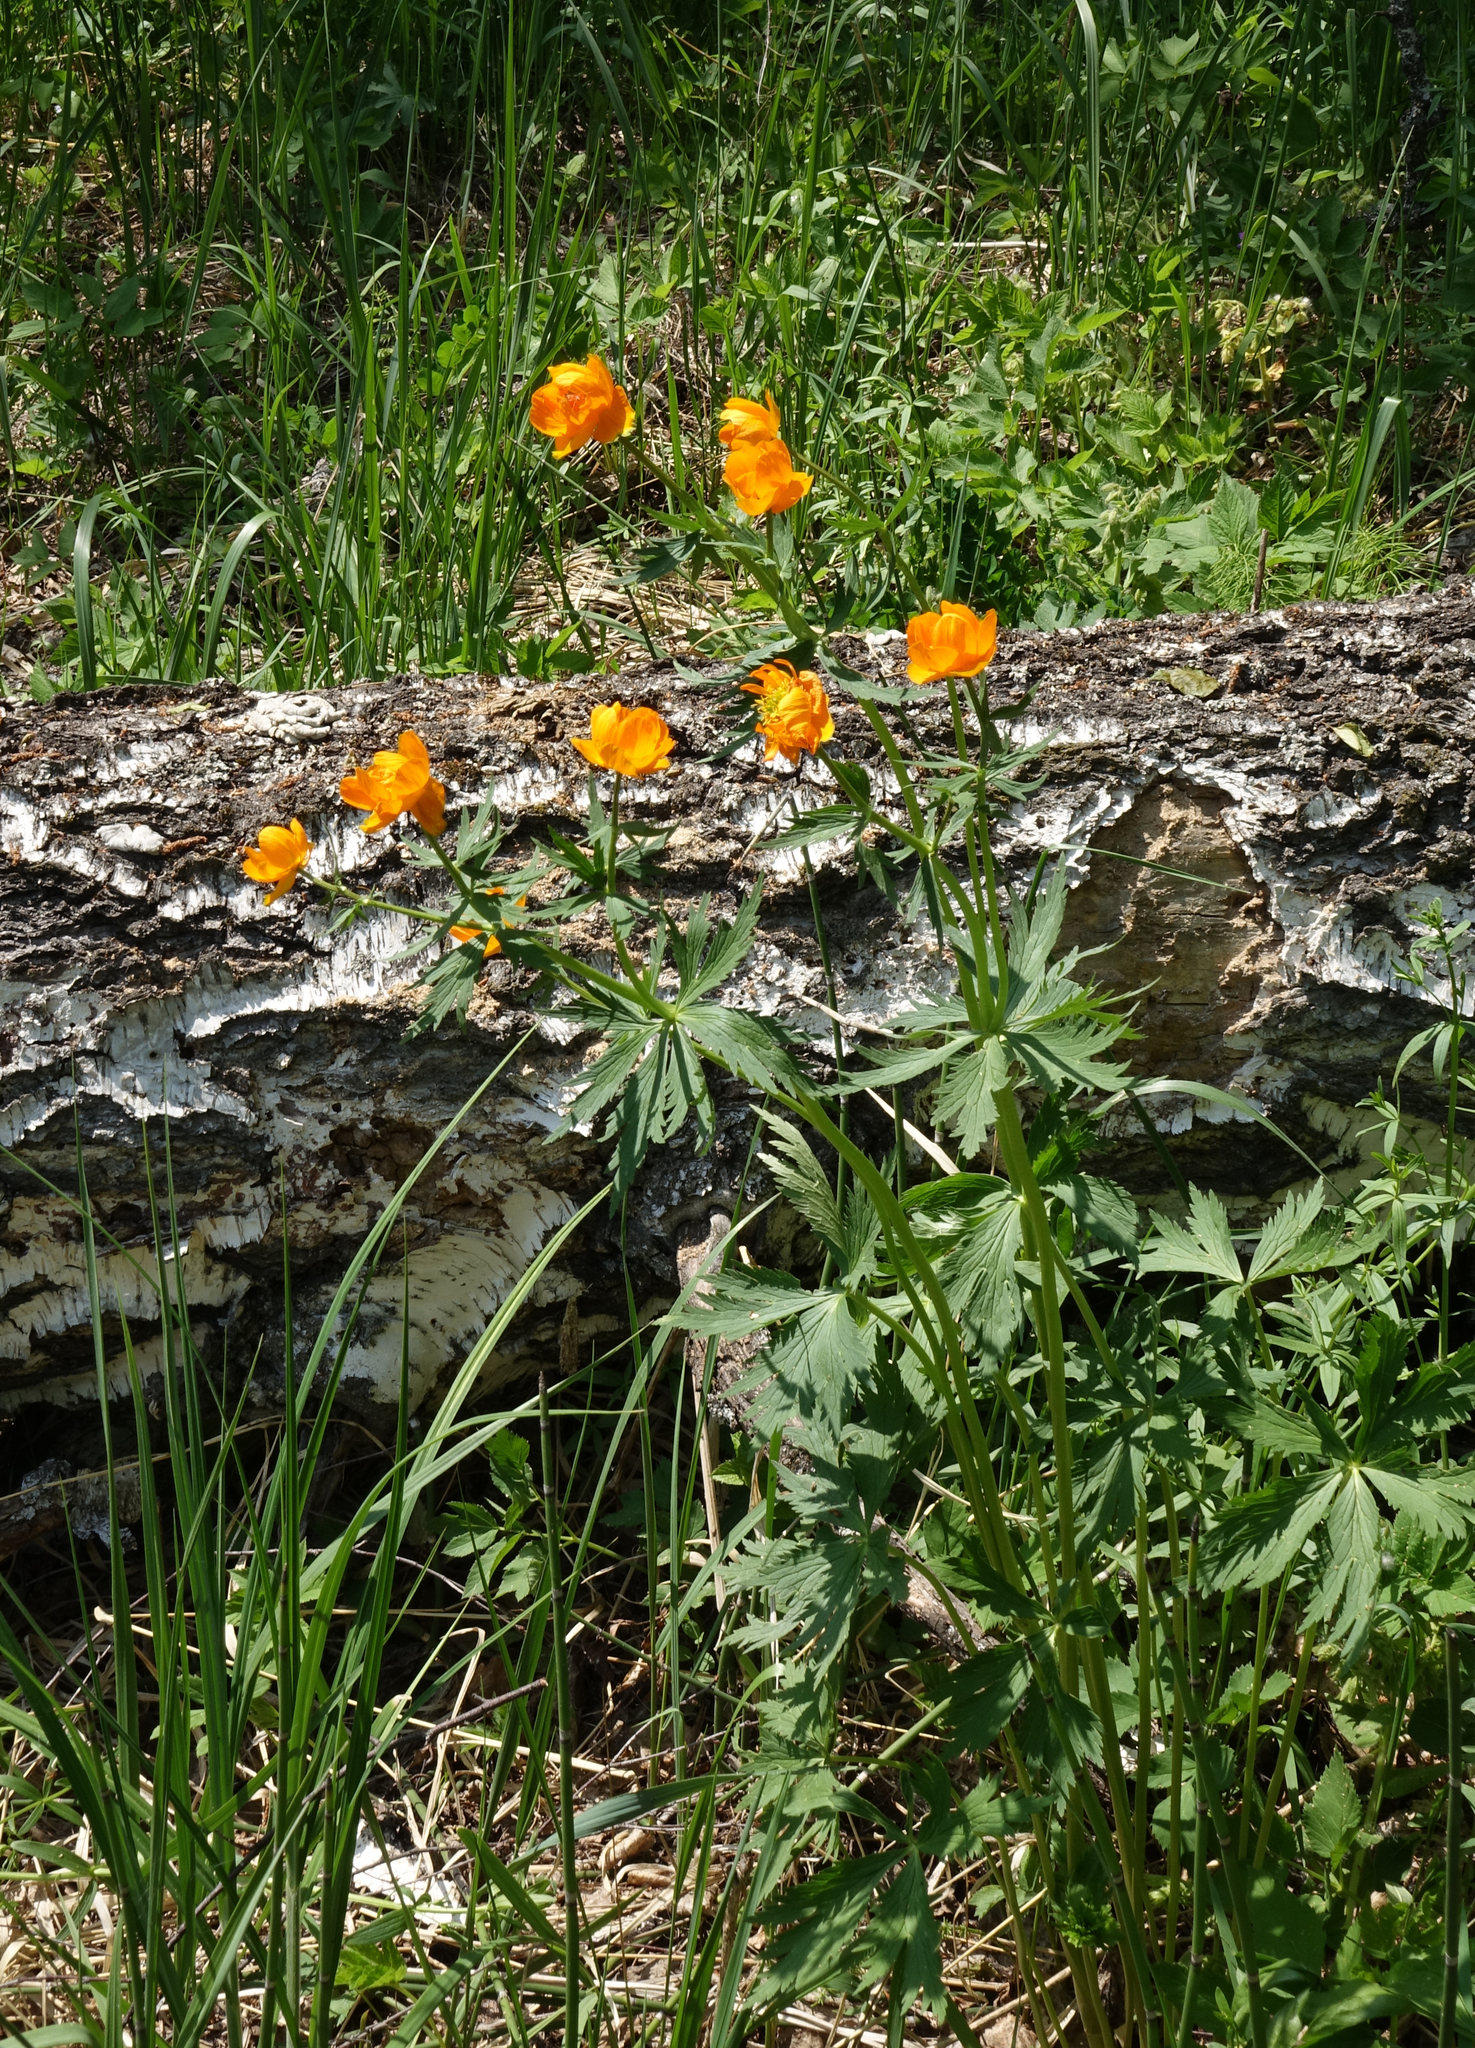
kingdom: Plantae
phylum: Tracheophyta
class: Magnoliopsida
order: Ranunculales
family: Ranunculaceae
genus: Trollius
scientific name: Trollius asiaticus
